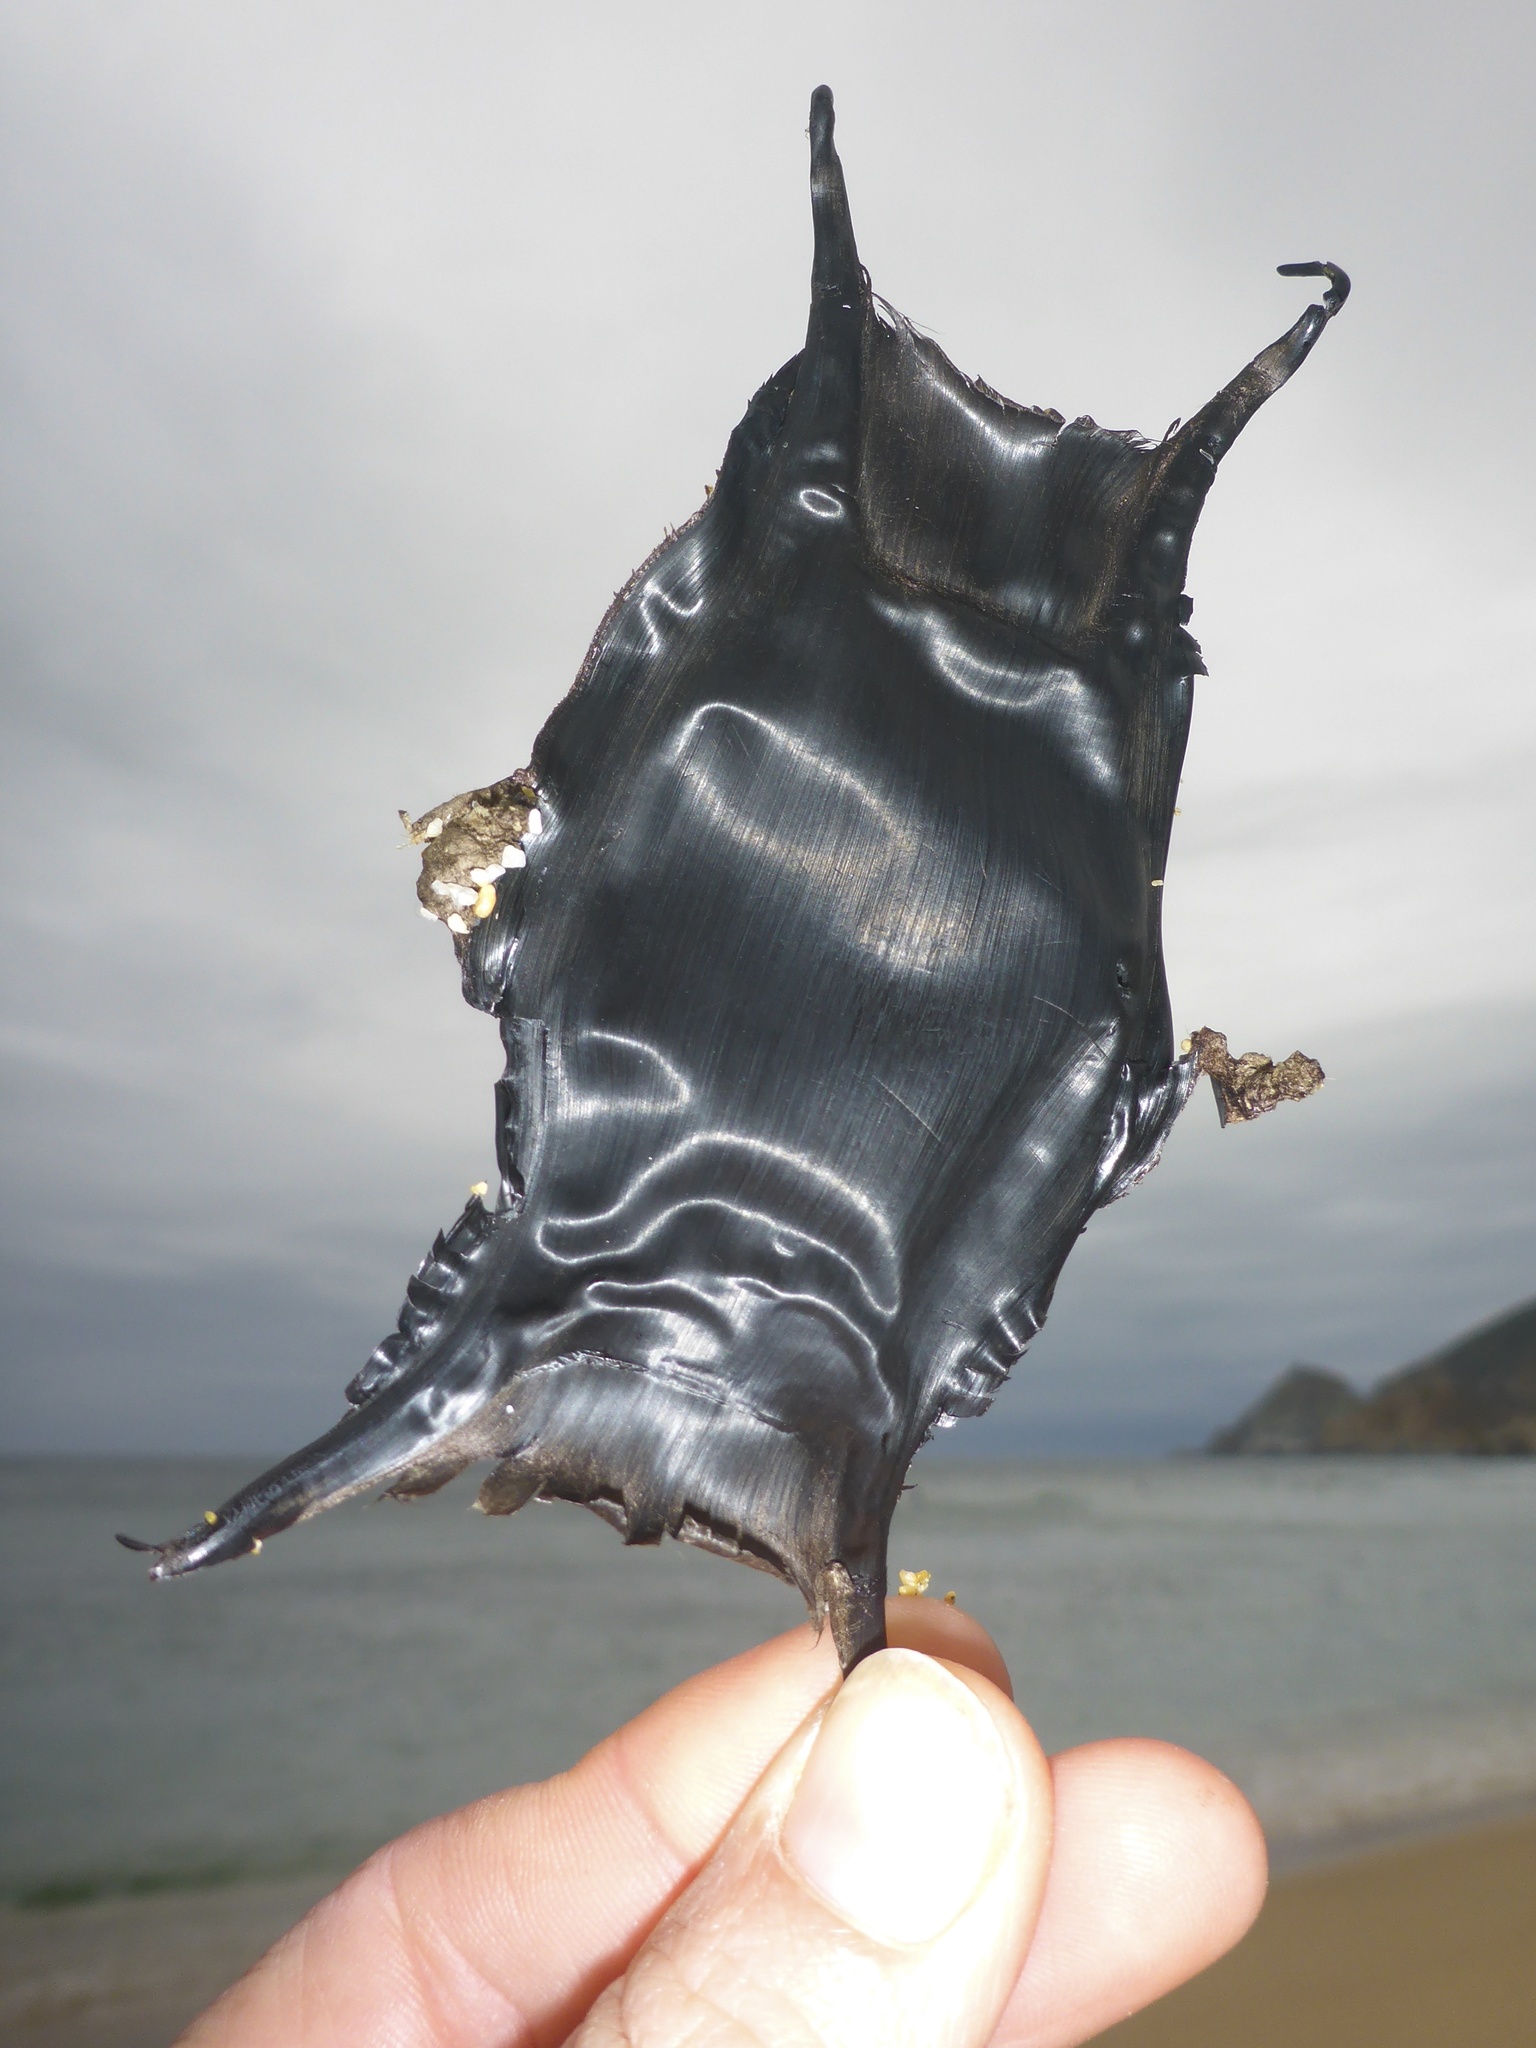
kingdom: Animalia
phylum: Chordata
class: Elasmobranchii
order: Rajiformes
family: Rajidae
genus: Caliraja
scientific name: Caliraja
